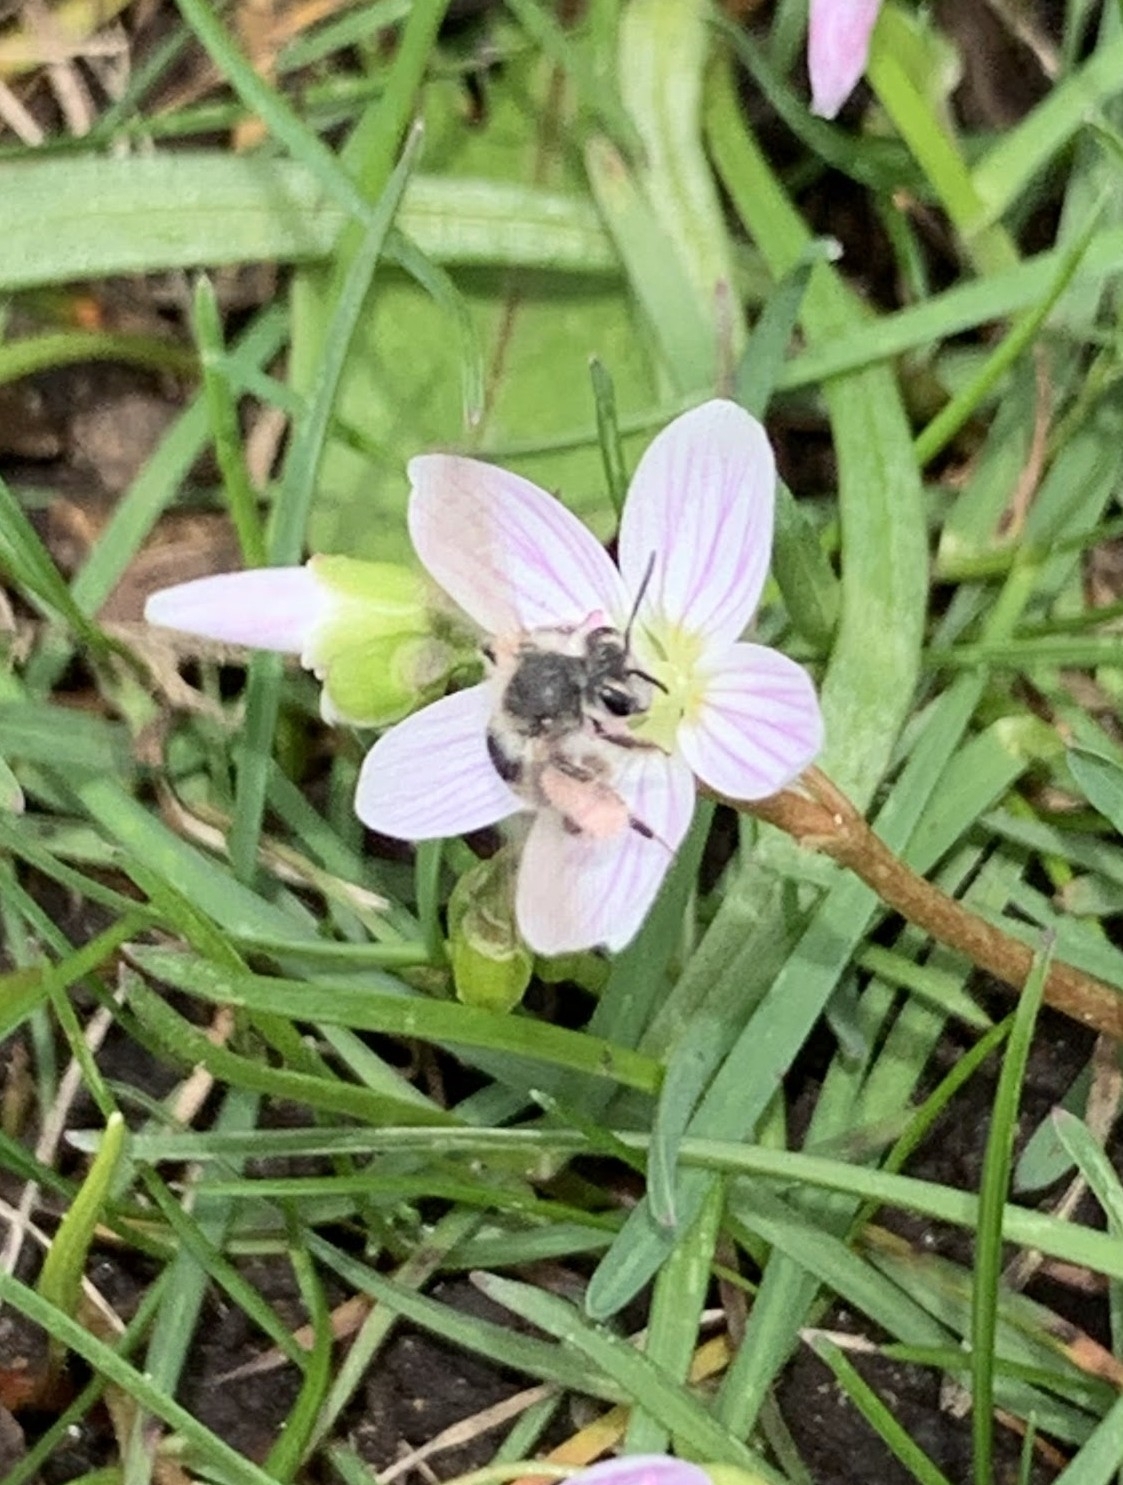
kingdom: Animalia
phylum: Arthropoda
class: Insecta
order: Hymenoptera
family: Andrenidae
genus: Andrena
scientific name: Andrena erigeniae
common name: Spring beauty miner
